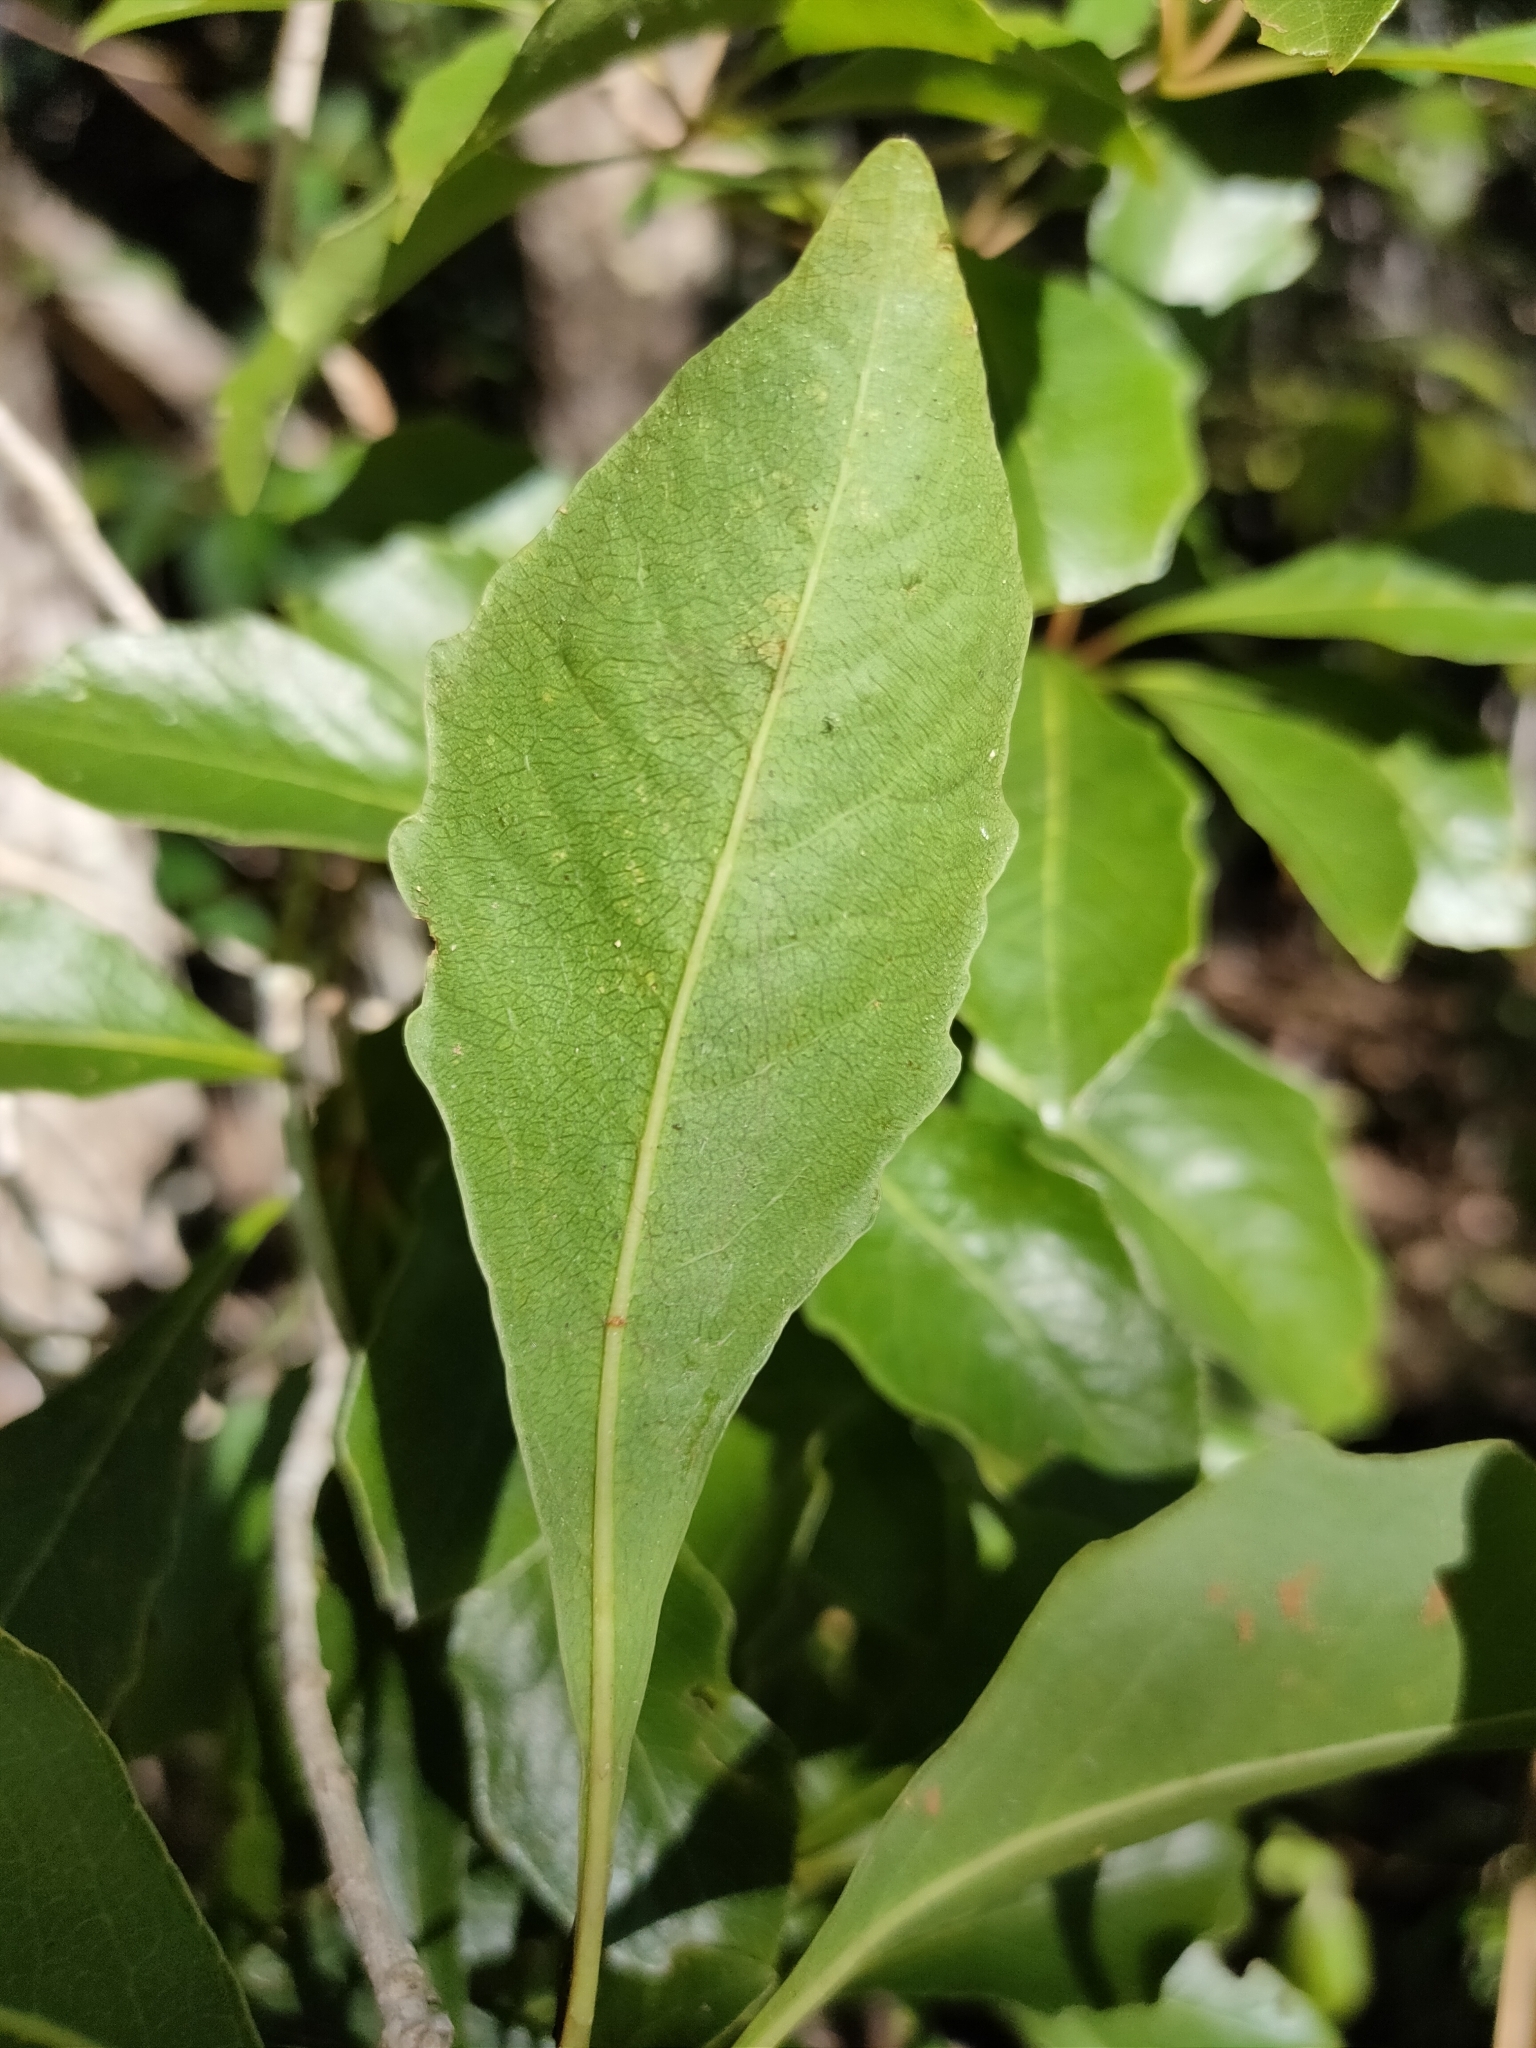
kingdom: Plantae
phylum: Tracheophyta
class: Magnoliopsida
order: Apiales
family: Pittosporaceae
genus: Auranticarpa
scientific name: Auranticarpa rhombifolia
